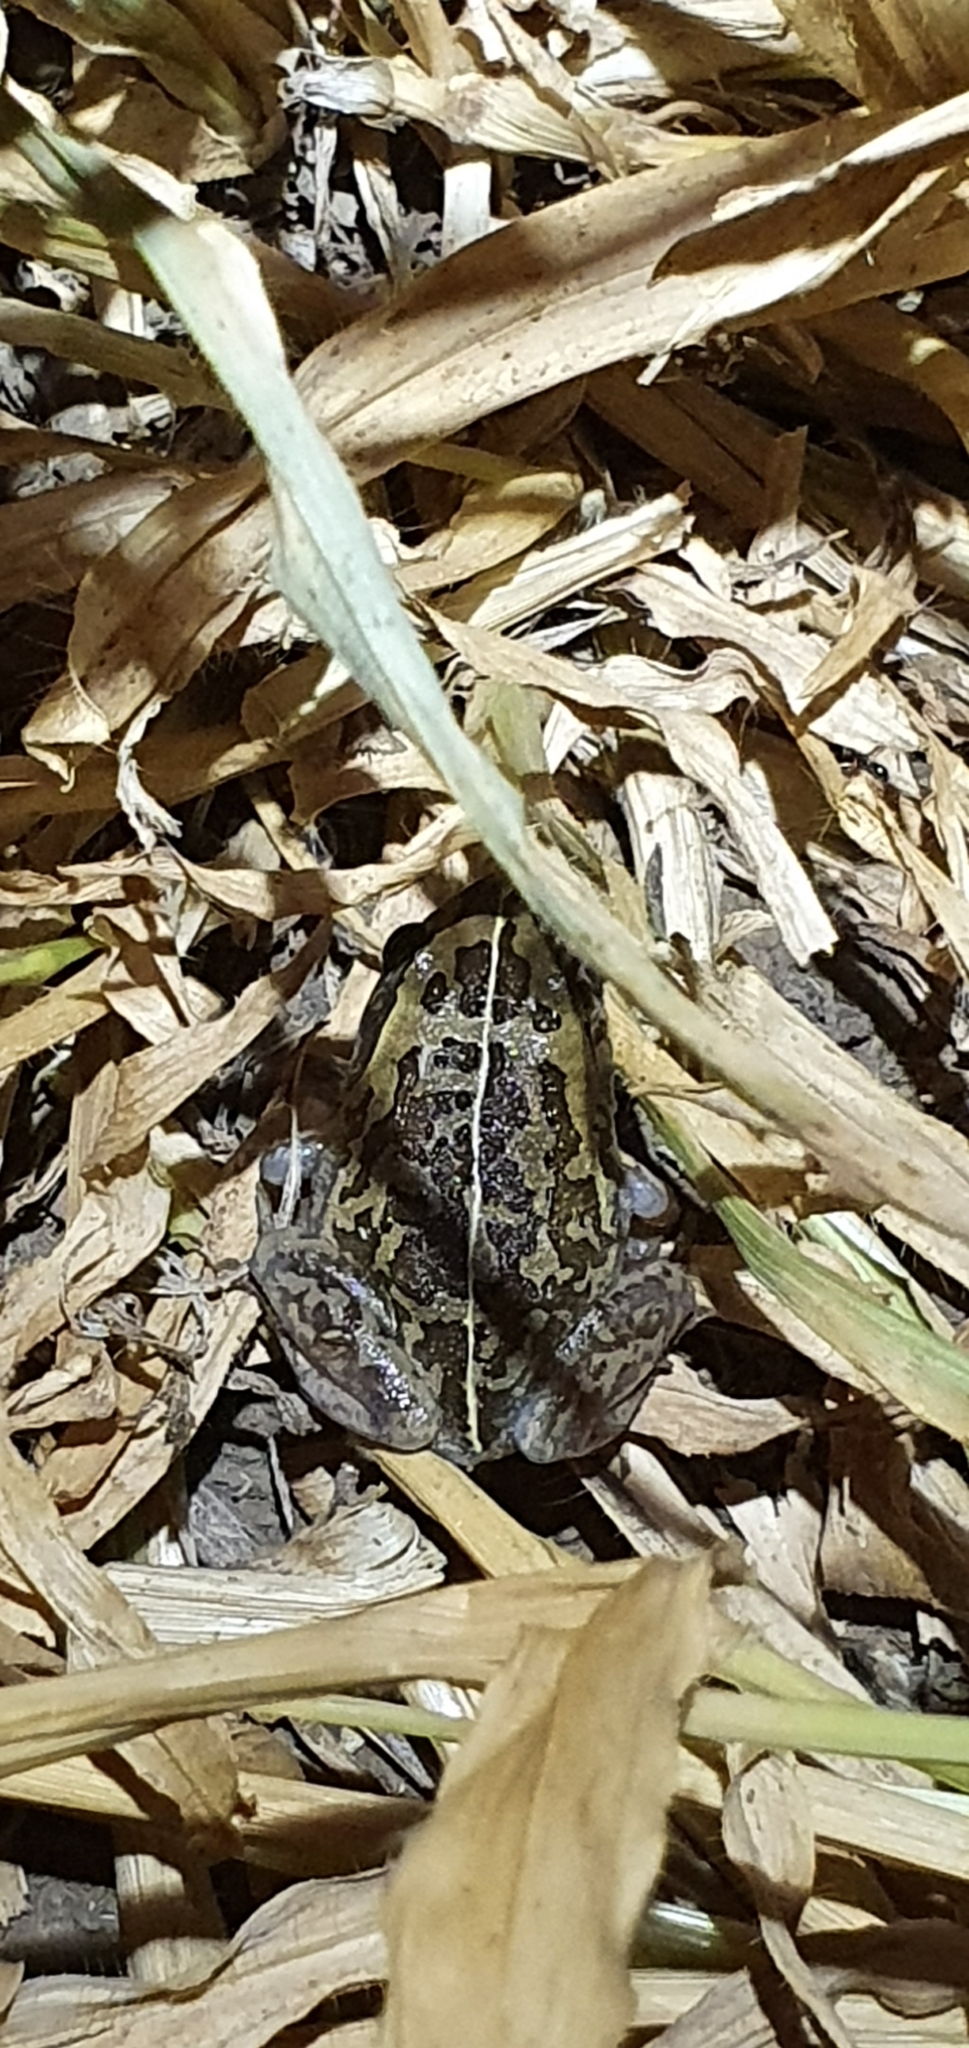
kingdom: Animalia
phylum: Chordata
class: Amphibia
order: Anura
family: Pelodryadidae
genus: Ranoidea
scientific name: Ranoidea brevipes
